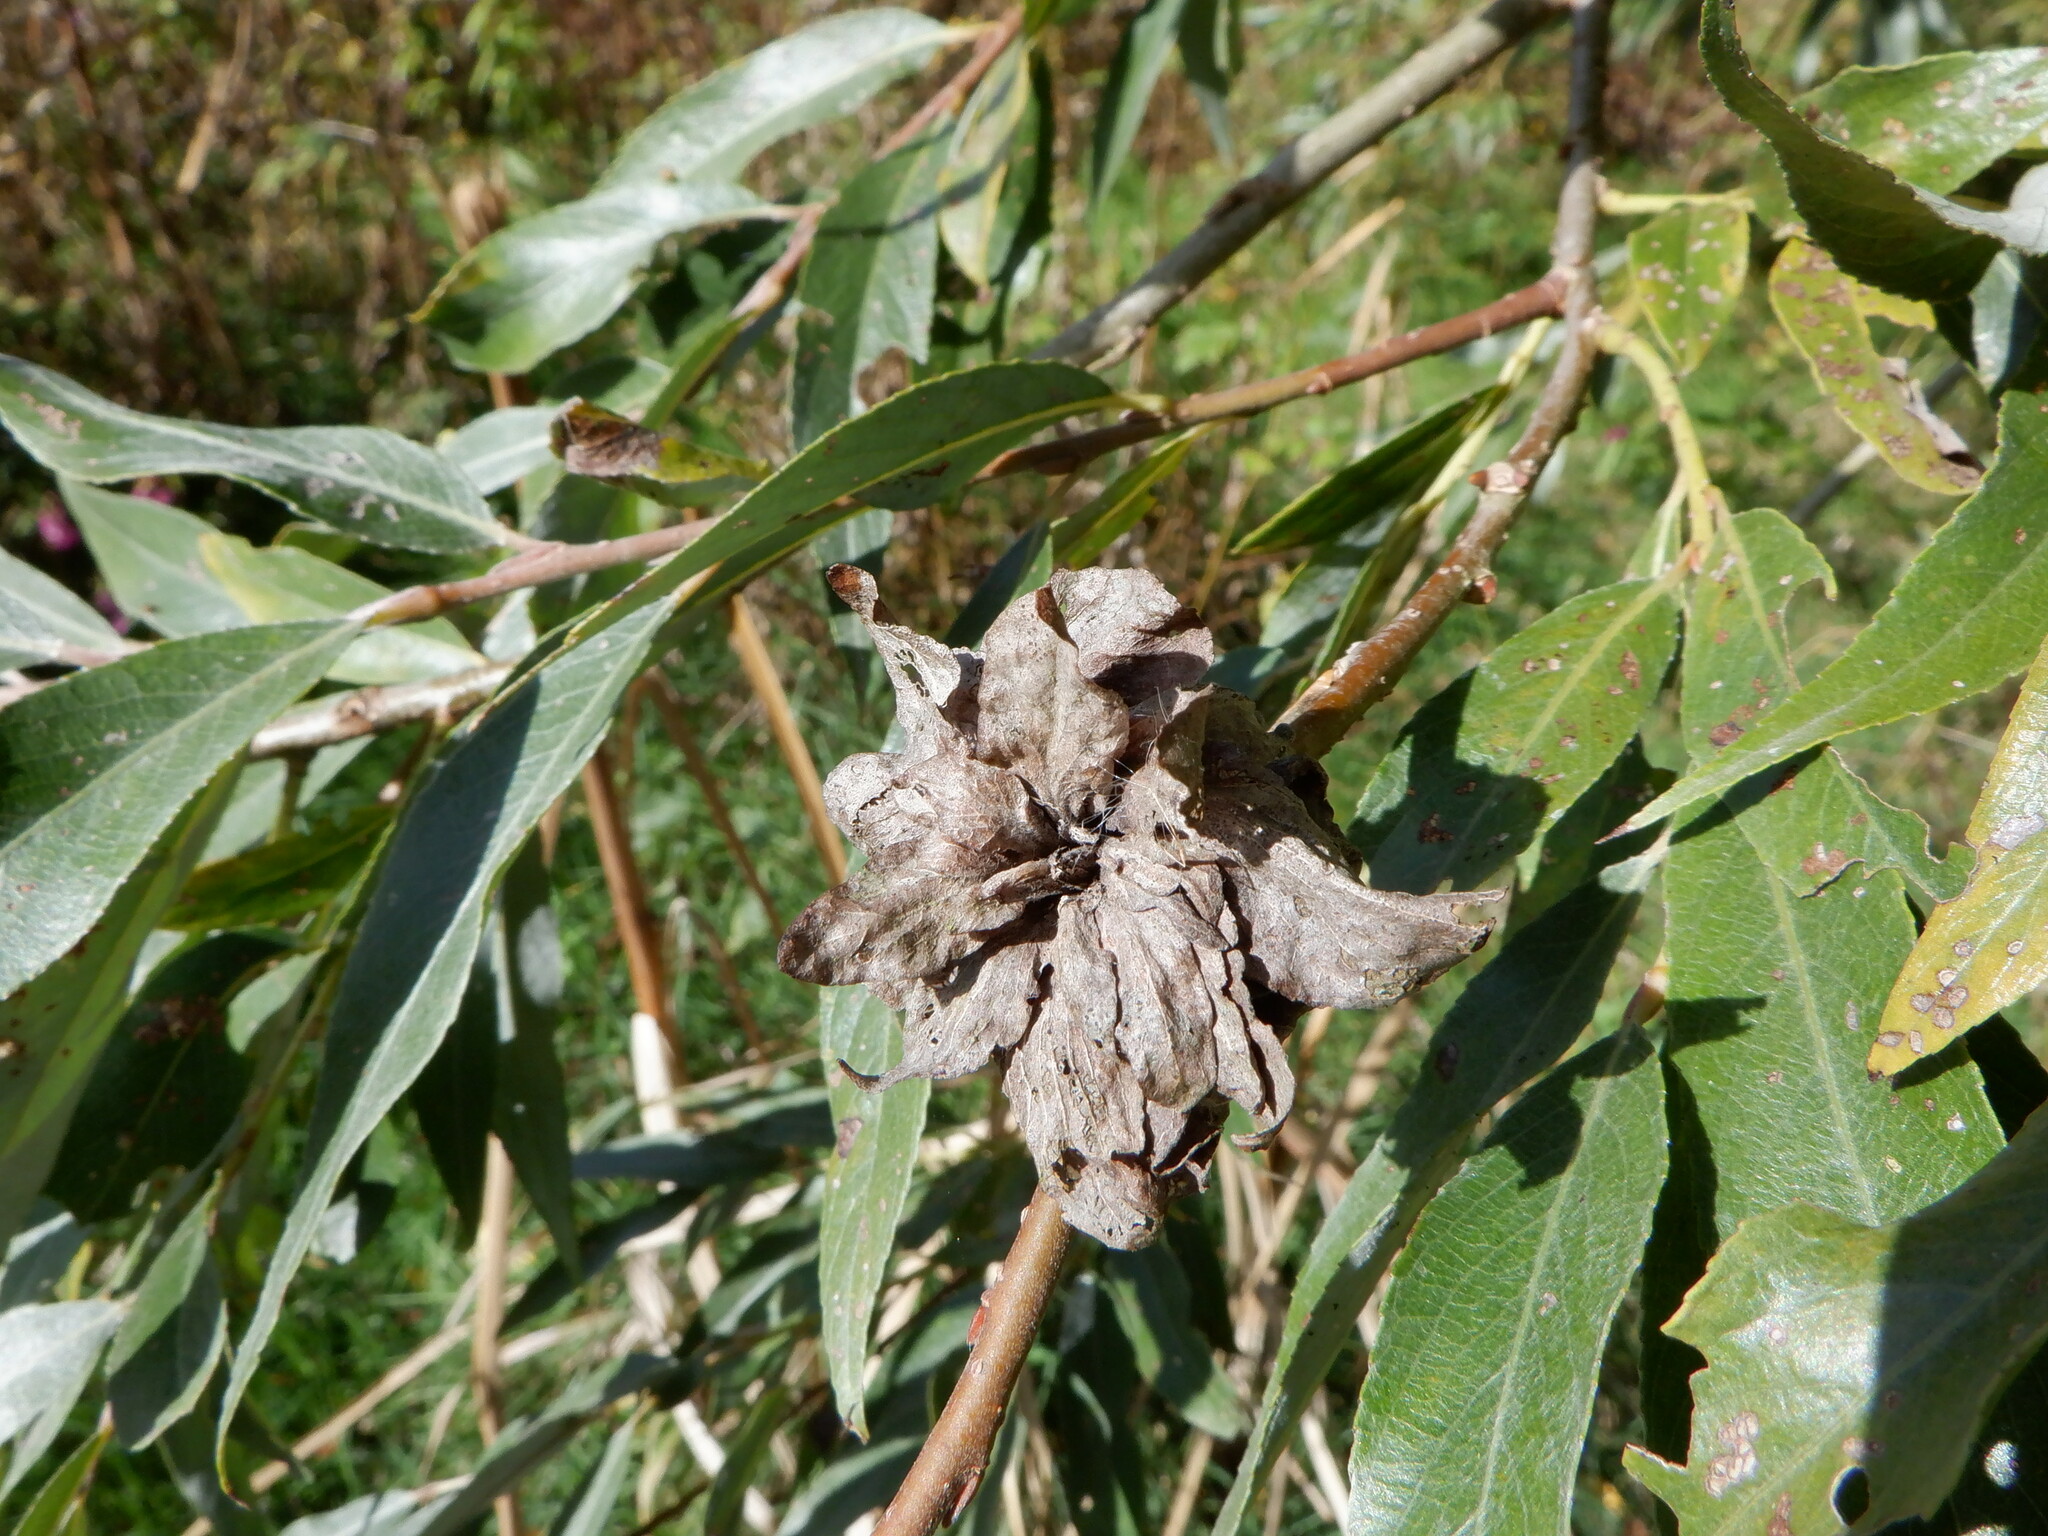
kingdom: Animalia
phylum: Arthropoda
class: Insecta
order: Diptera
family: Cecidomyiidae
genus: Rabdophaga
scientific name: Rabdophaga rosaria
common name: Willow rose gall midge
